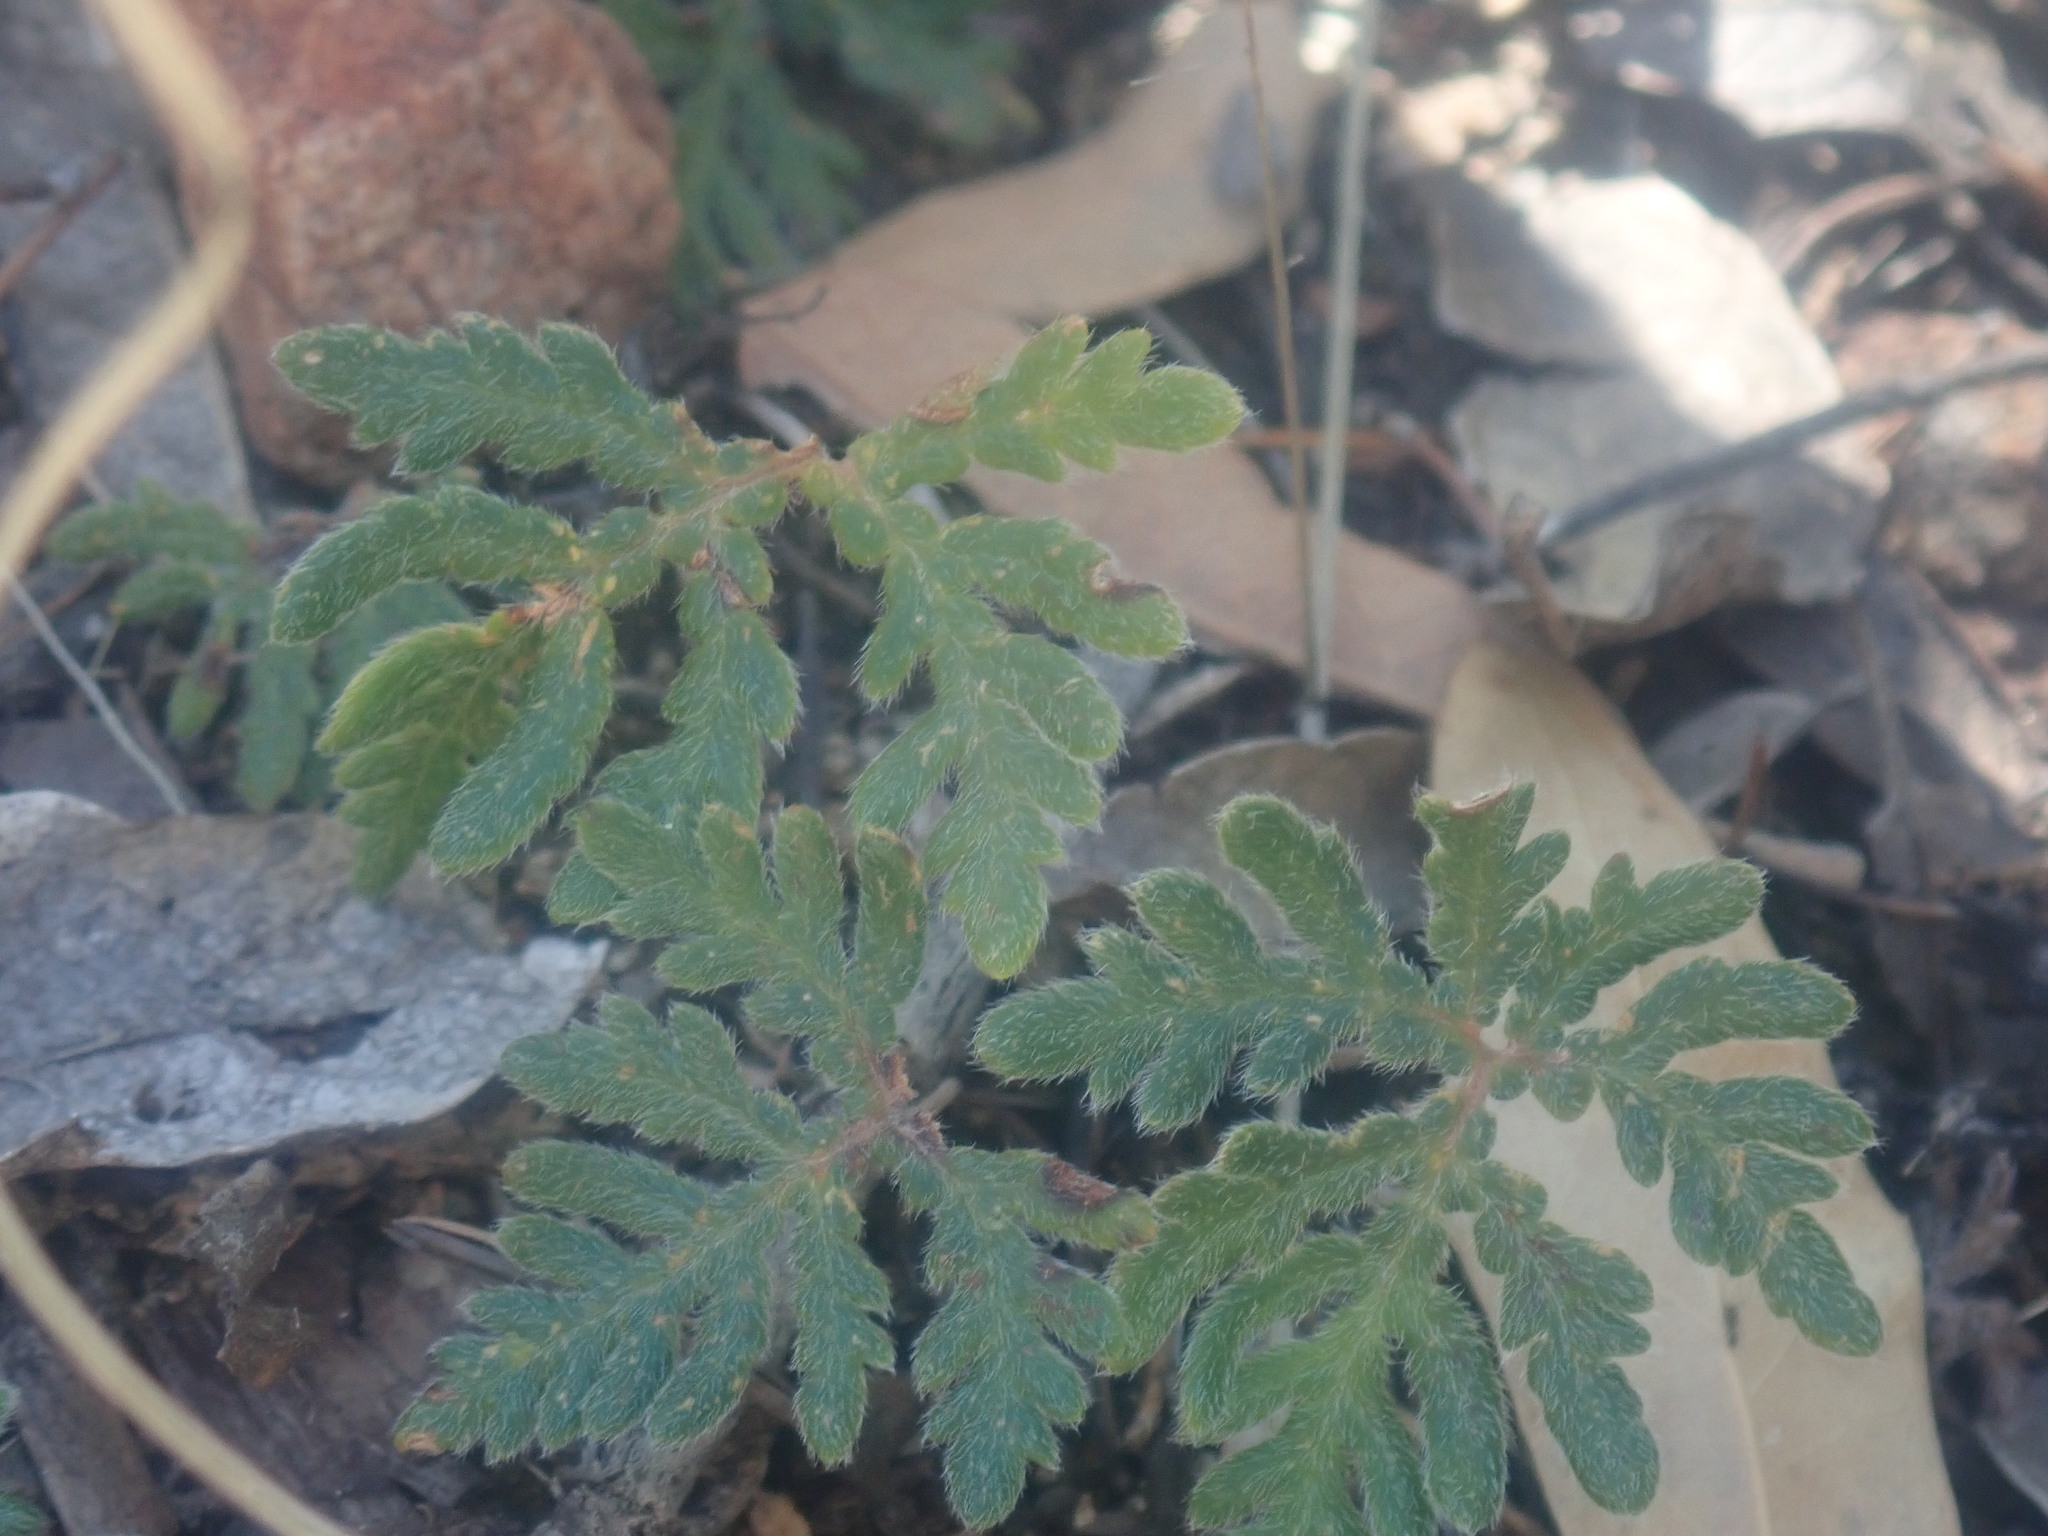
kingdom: Plantae
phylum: Tracheophyta
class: Polypodiopsida
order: Polypodiales
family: Pteridaceae
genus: Bommeria
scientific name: Bommeria hispida
